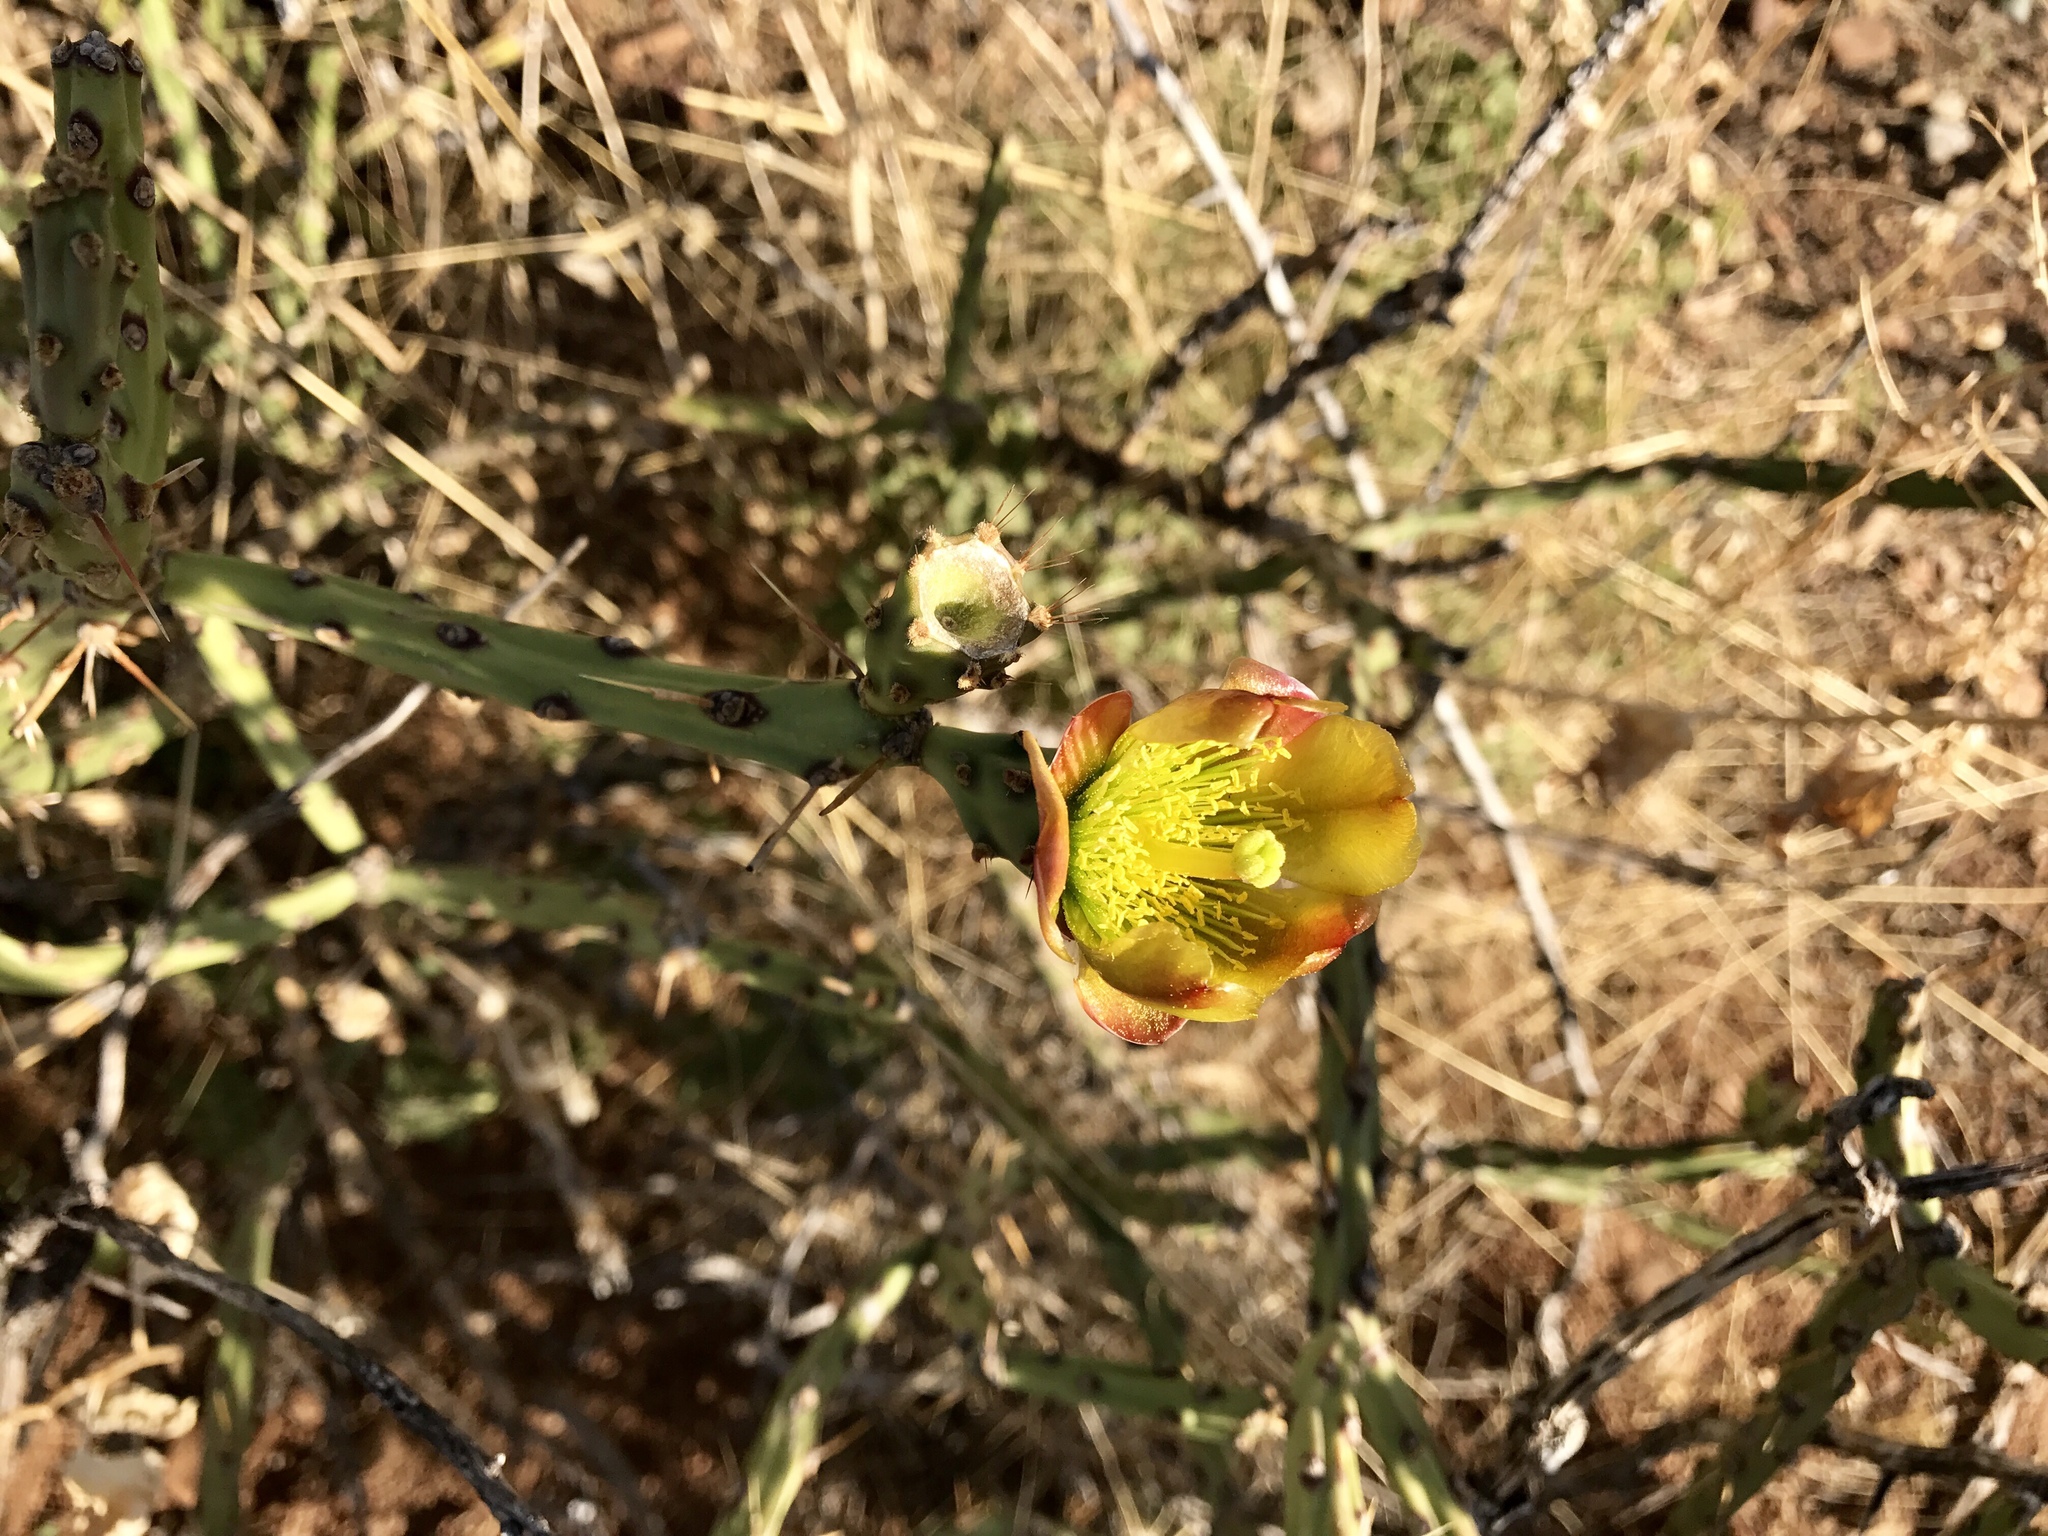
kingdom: Plantae
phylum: Tracheophyta
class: Magnoliopsida
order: Caryophyllales
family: Cactaceae
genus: Cylindropuntia
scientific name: Cylindropuntia arbuscula
